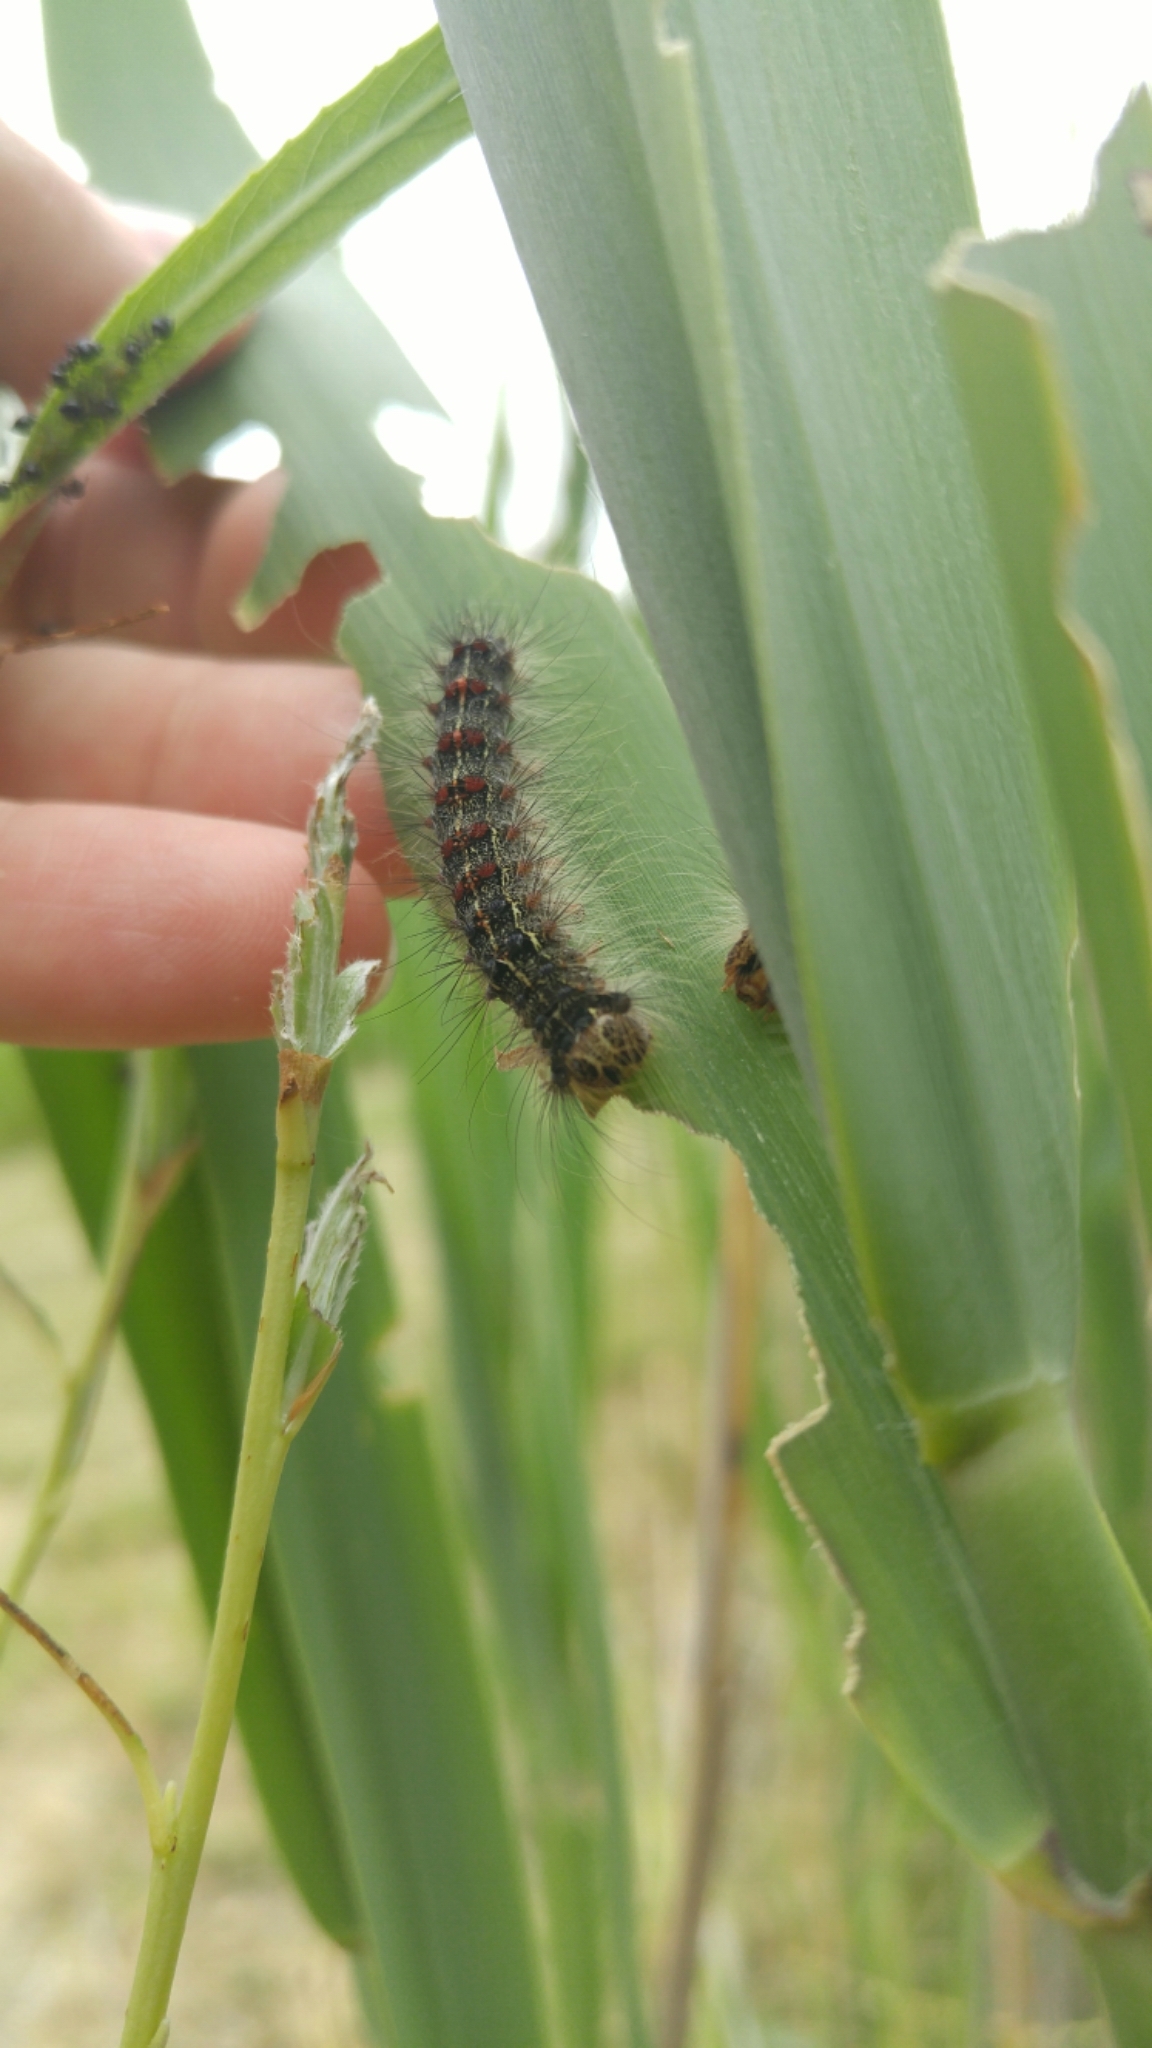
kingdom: Animalia
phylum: Arthropoda
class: Insecta
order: Lepidoptera
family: Erebidae
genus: Lymantria
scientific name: Lymantria dispar
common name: Gypsy moth
